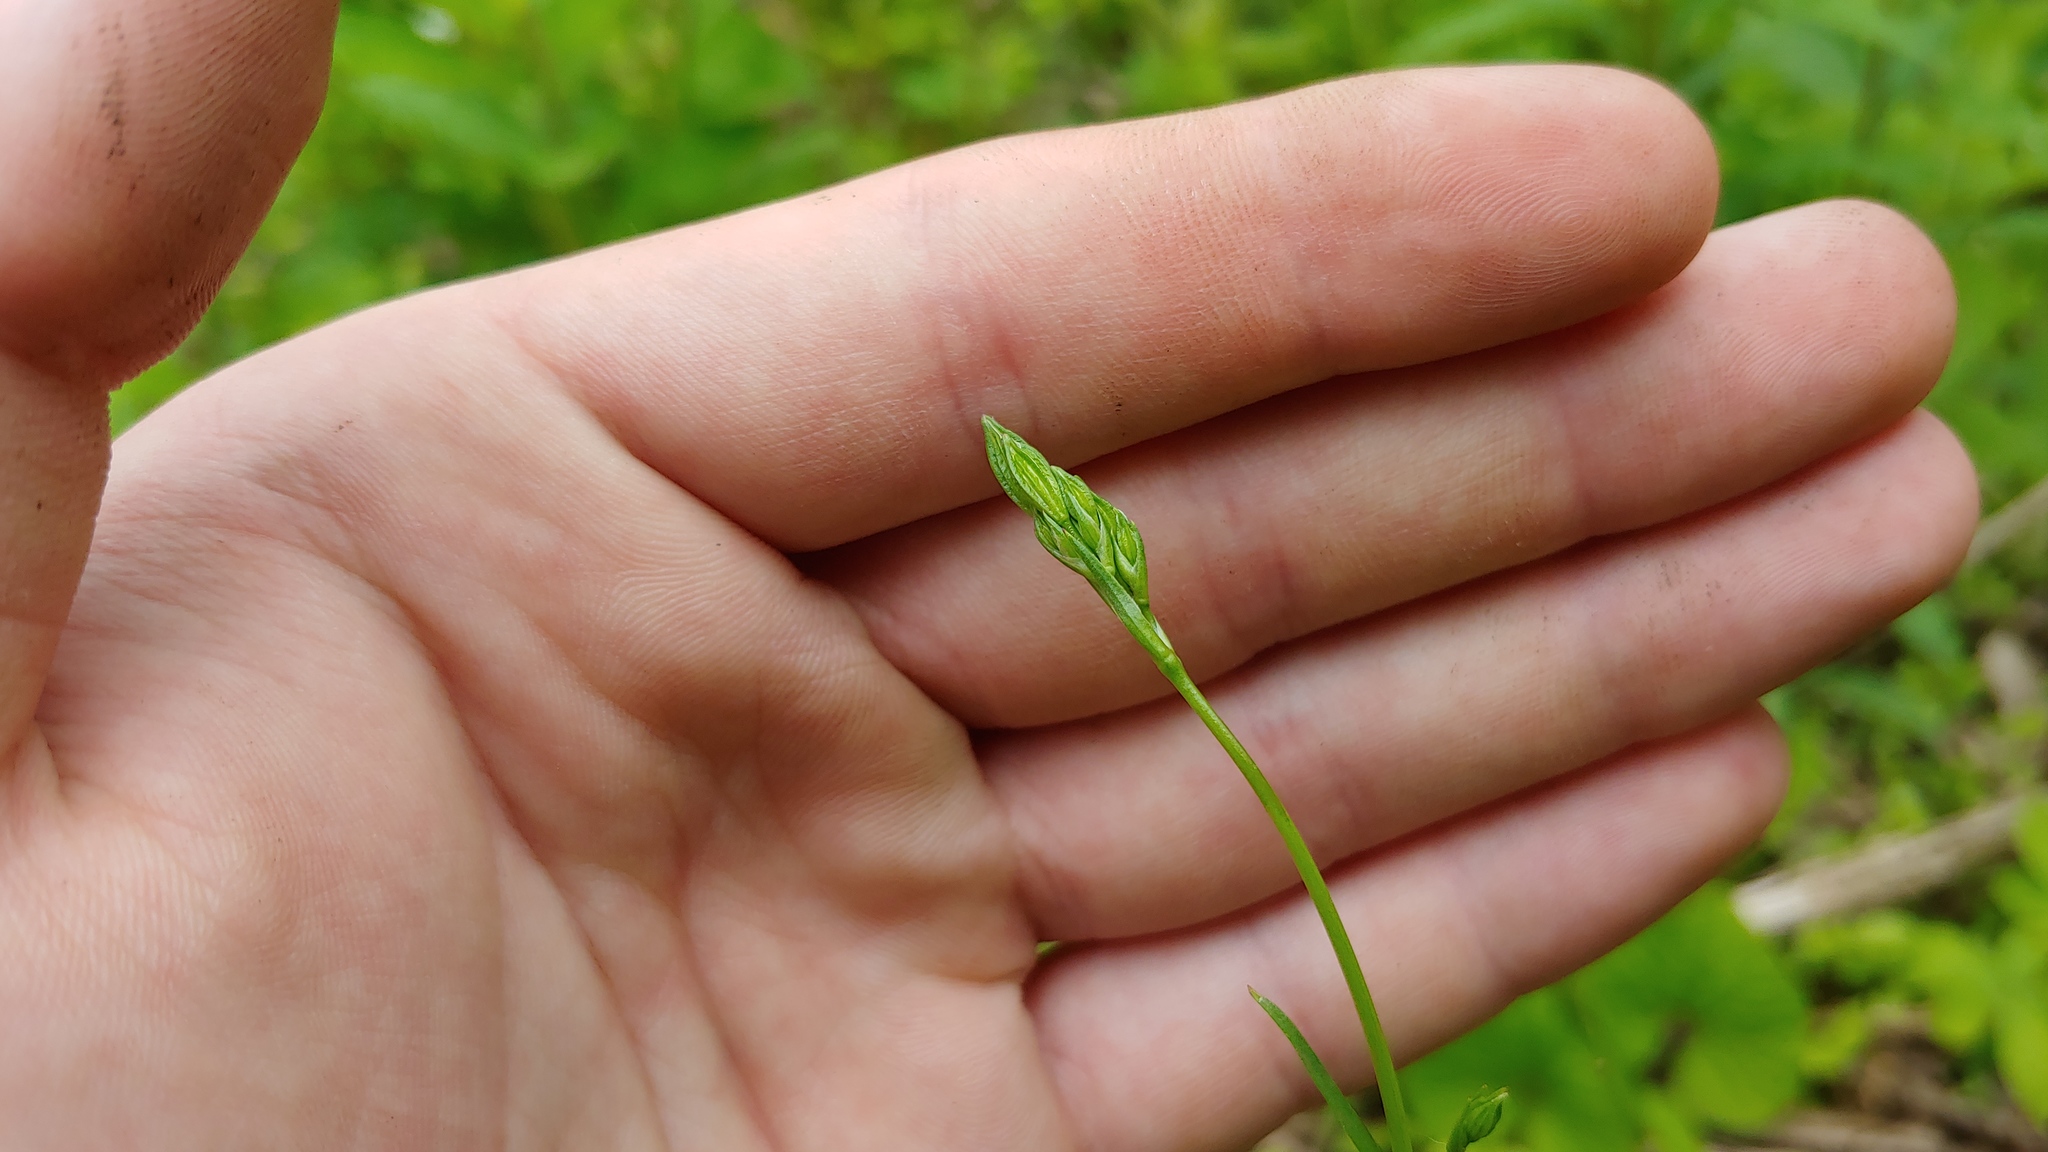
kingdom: Plantae
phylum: Tracheophyta
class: Magnoliopsida
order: Caryophyllales
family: Caryophyllaceae
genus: Silene
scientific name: Silene antirrhina
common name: Sleepy catchfly
